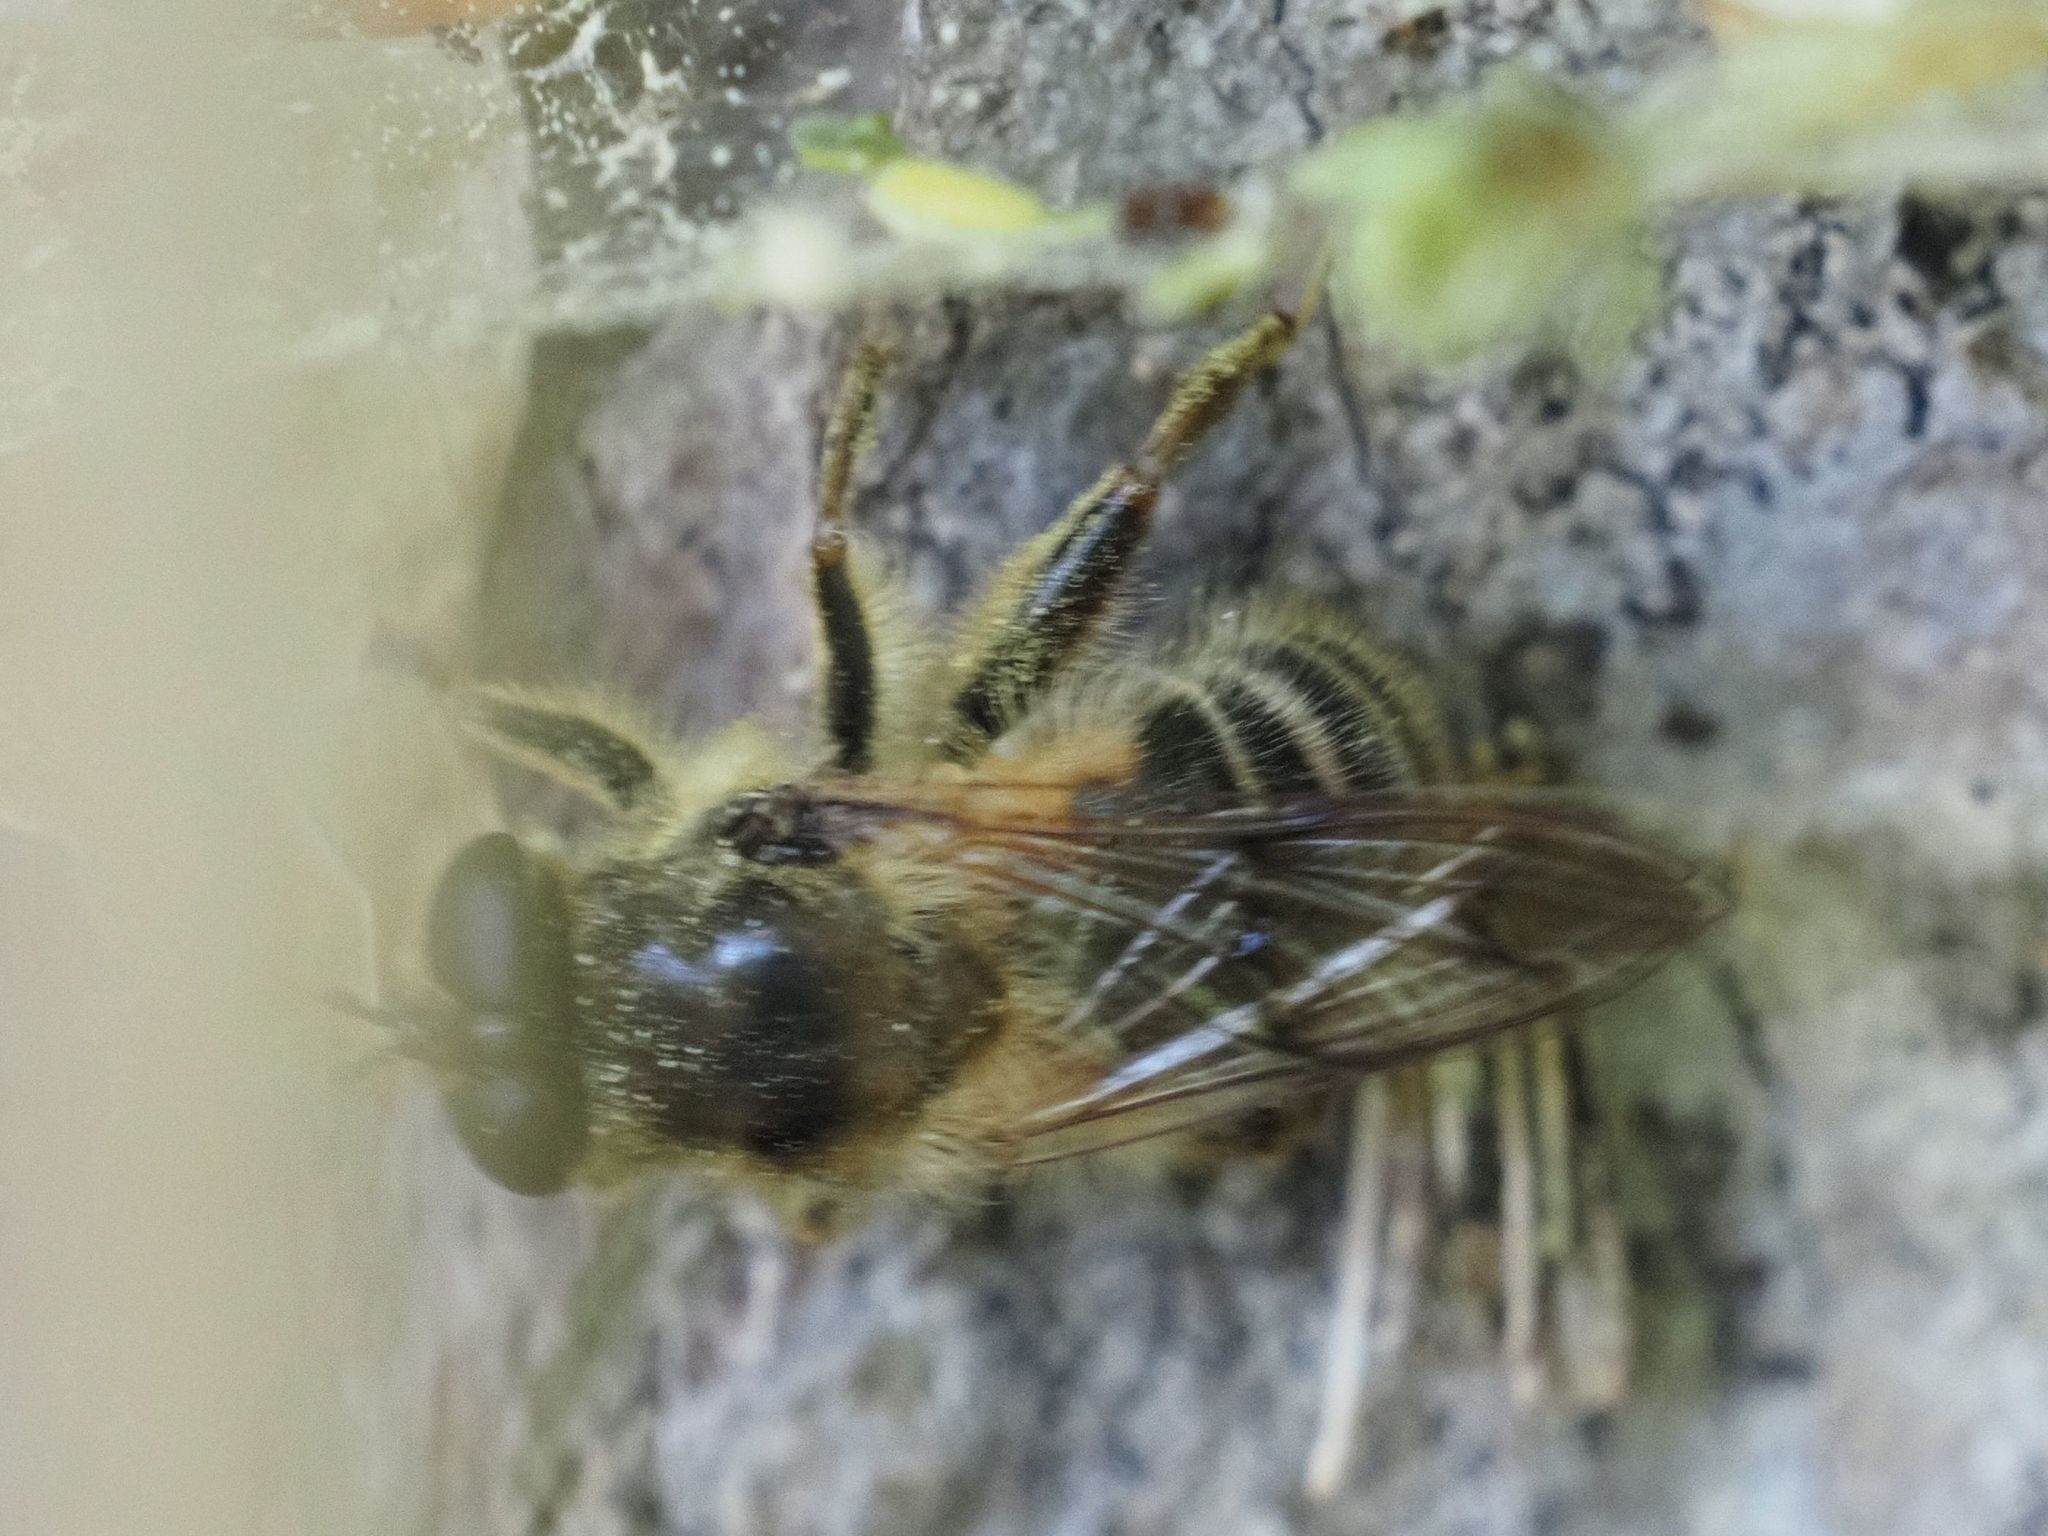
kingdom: Animalia
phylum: Arthropoda
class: Insecta
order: Diptera
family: Syrphidae
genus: Criorhina
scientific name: Criorhina pachymera
